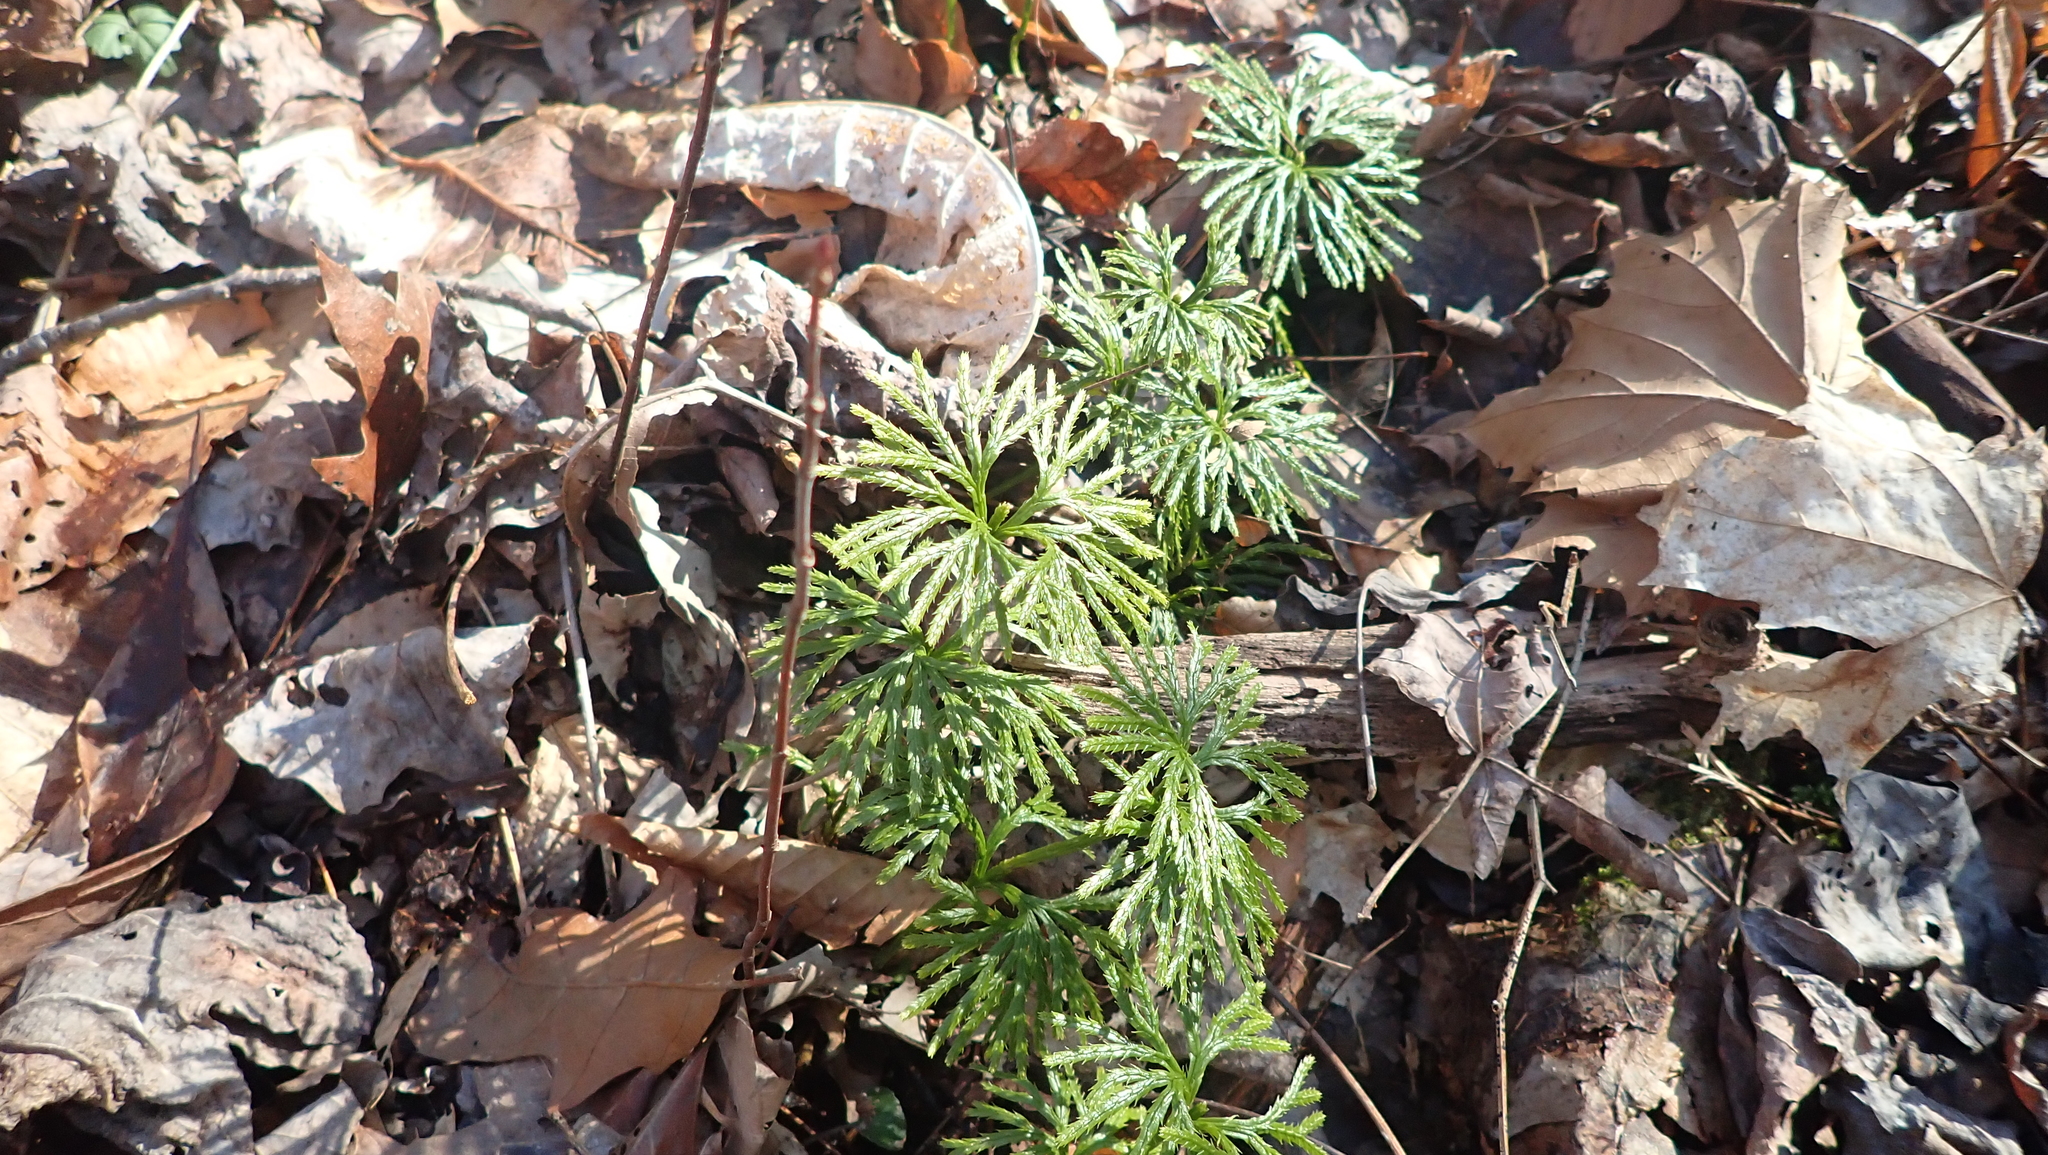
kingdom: Plantae
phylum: Tracheophyta
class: Lycopodiopsida
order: Lycopodiales
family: Lycopodiaceae
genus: Diphasiastrum
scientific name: Diphasiastrum digitatum
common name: Southern running-pine
